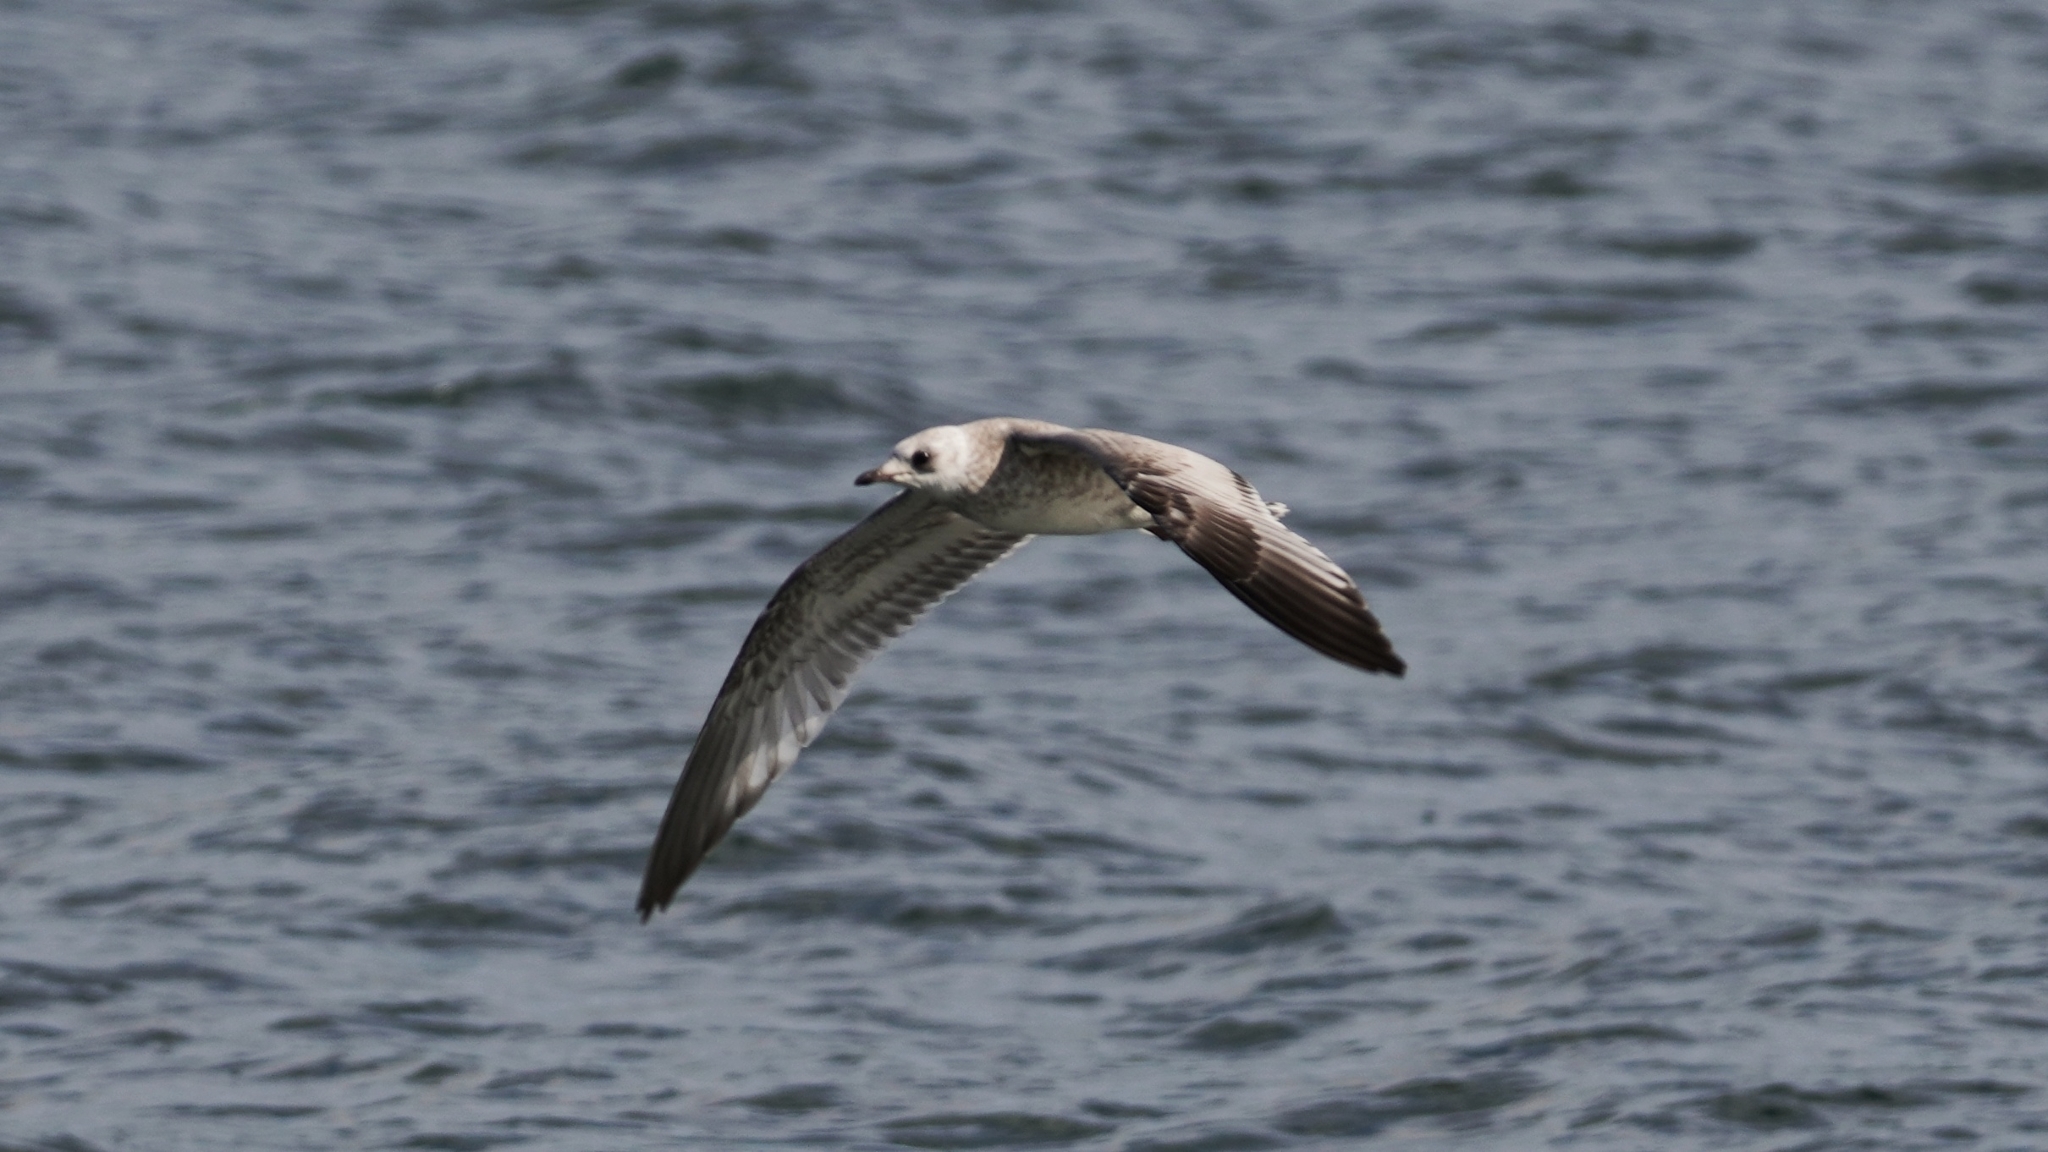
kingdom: Animalia
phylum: Chordata
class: Aves
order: Charadriiformes
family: Laridae
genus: Larus
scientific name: Larus canus
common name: Mew gull
